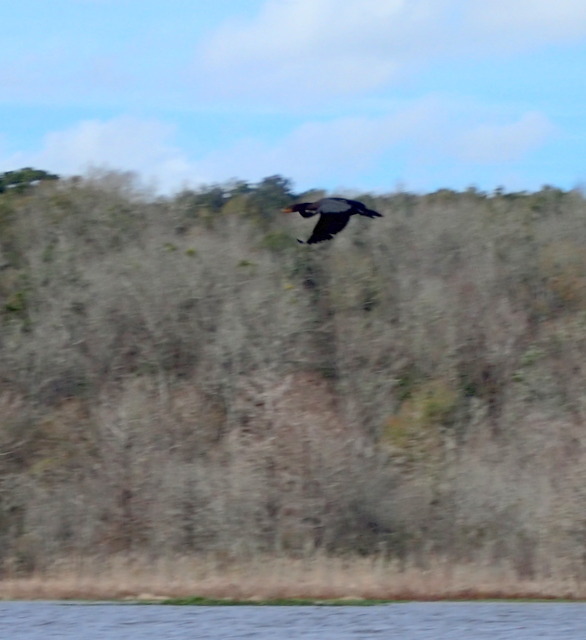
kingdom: Animalia
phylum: Chordata
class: Aves
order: Suliformes
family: Phalacrocoracidae
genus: Phalacrocorax
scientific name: Phalacrocorax auritus
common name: Double-crested cormorant
